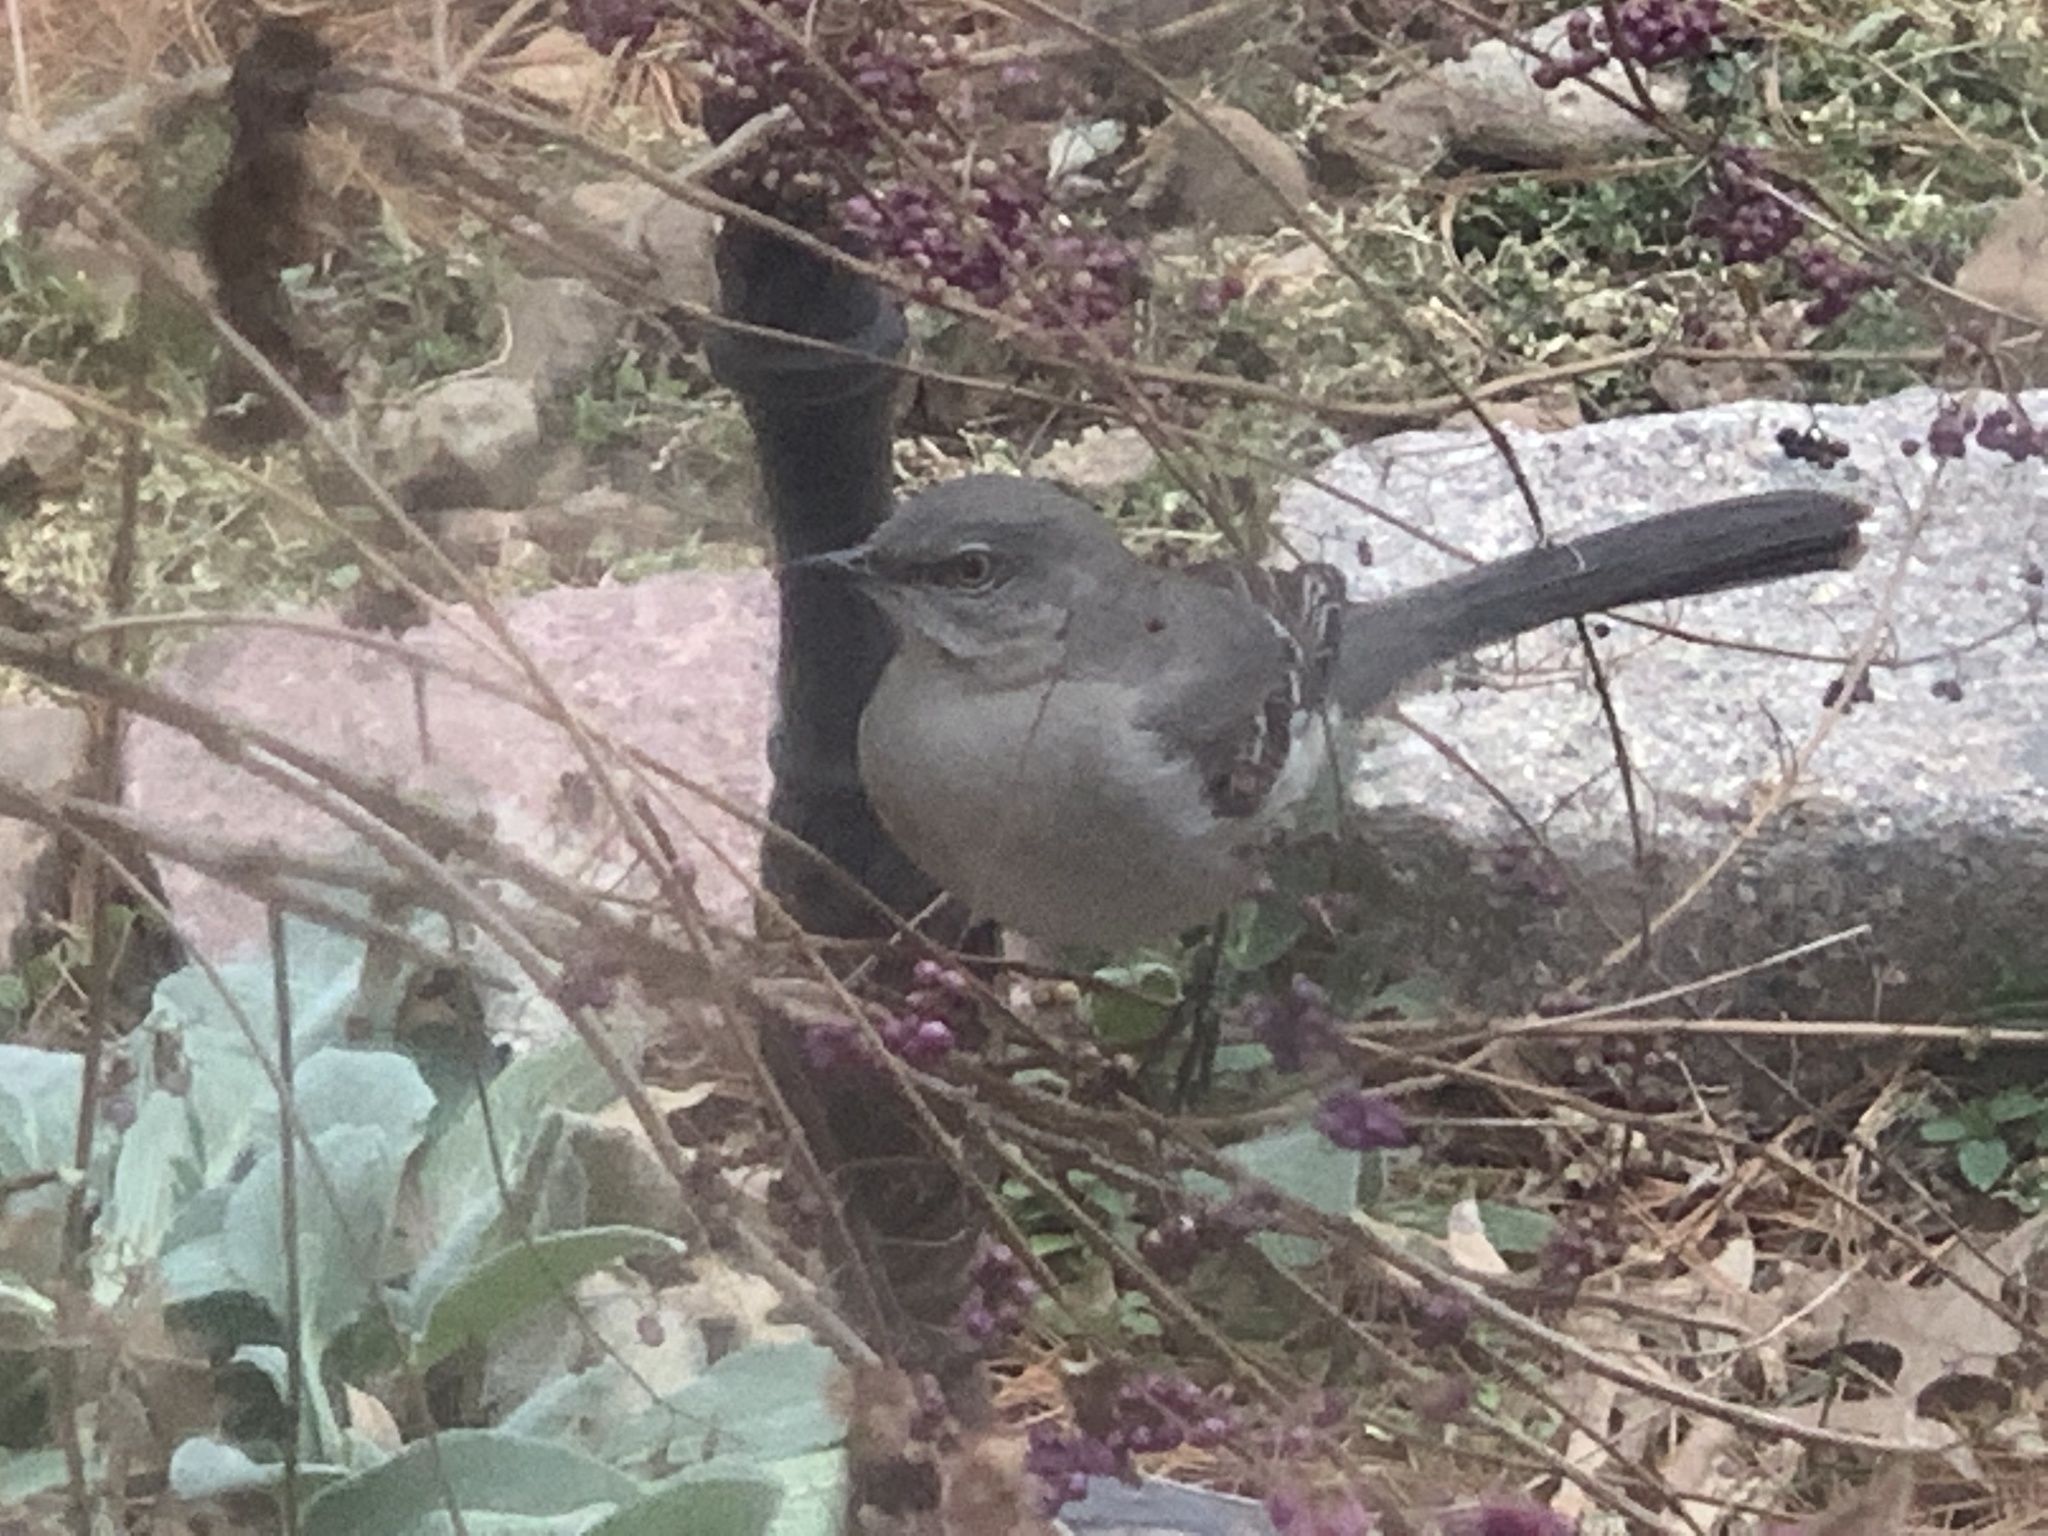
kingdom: Animalia
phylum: Chordata
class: Aves
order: Passeriformes
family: Mimidae
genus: Mimus
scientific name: Mimus polyglottos
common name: Northern mockingbird
